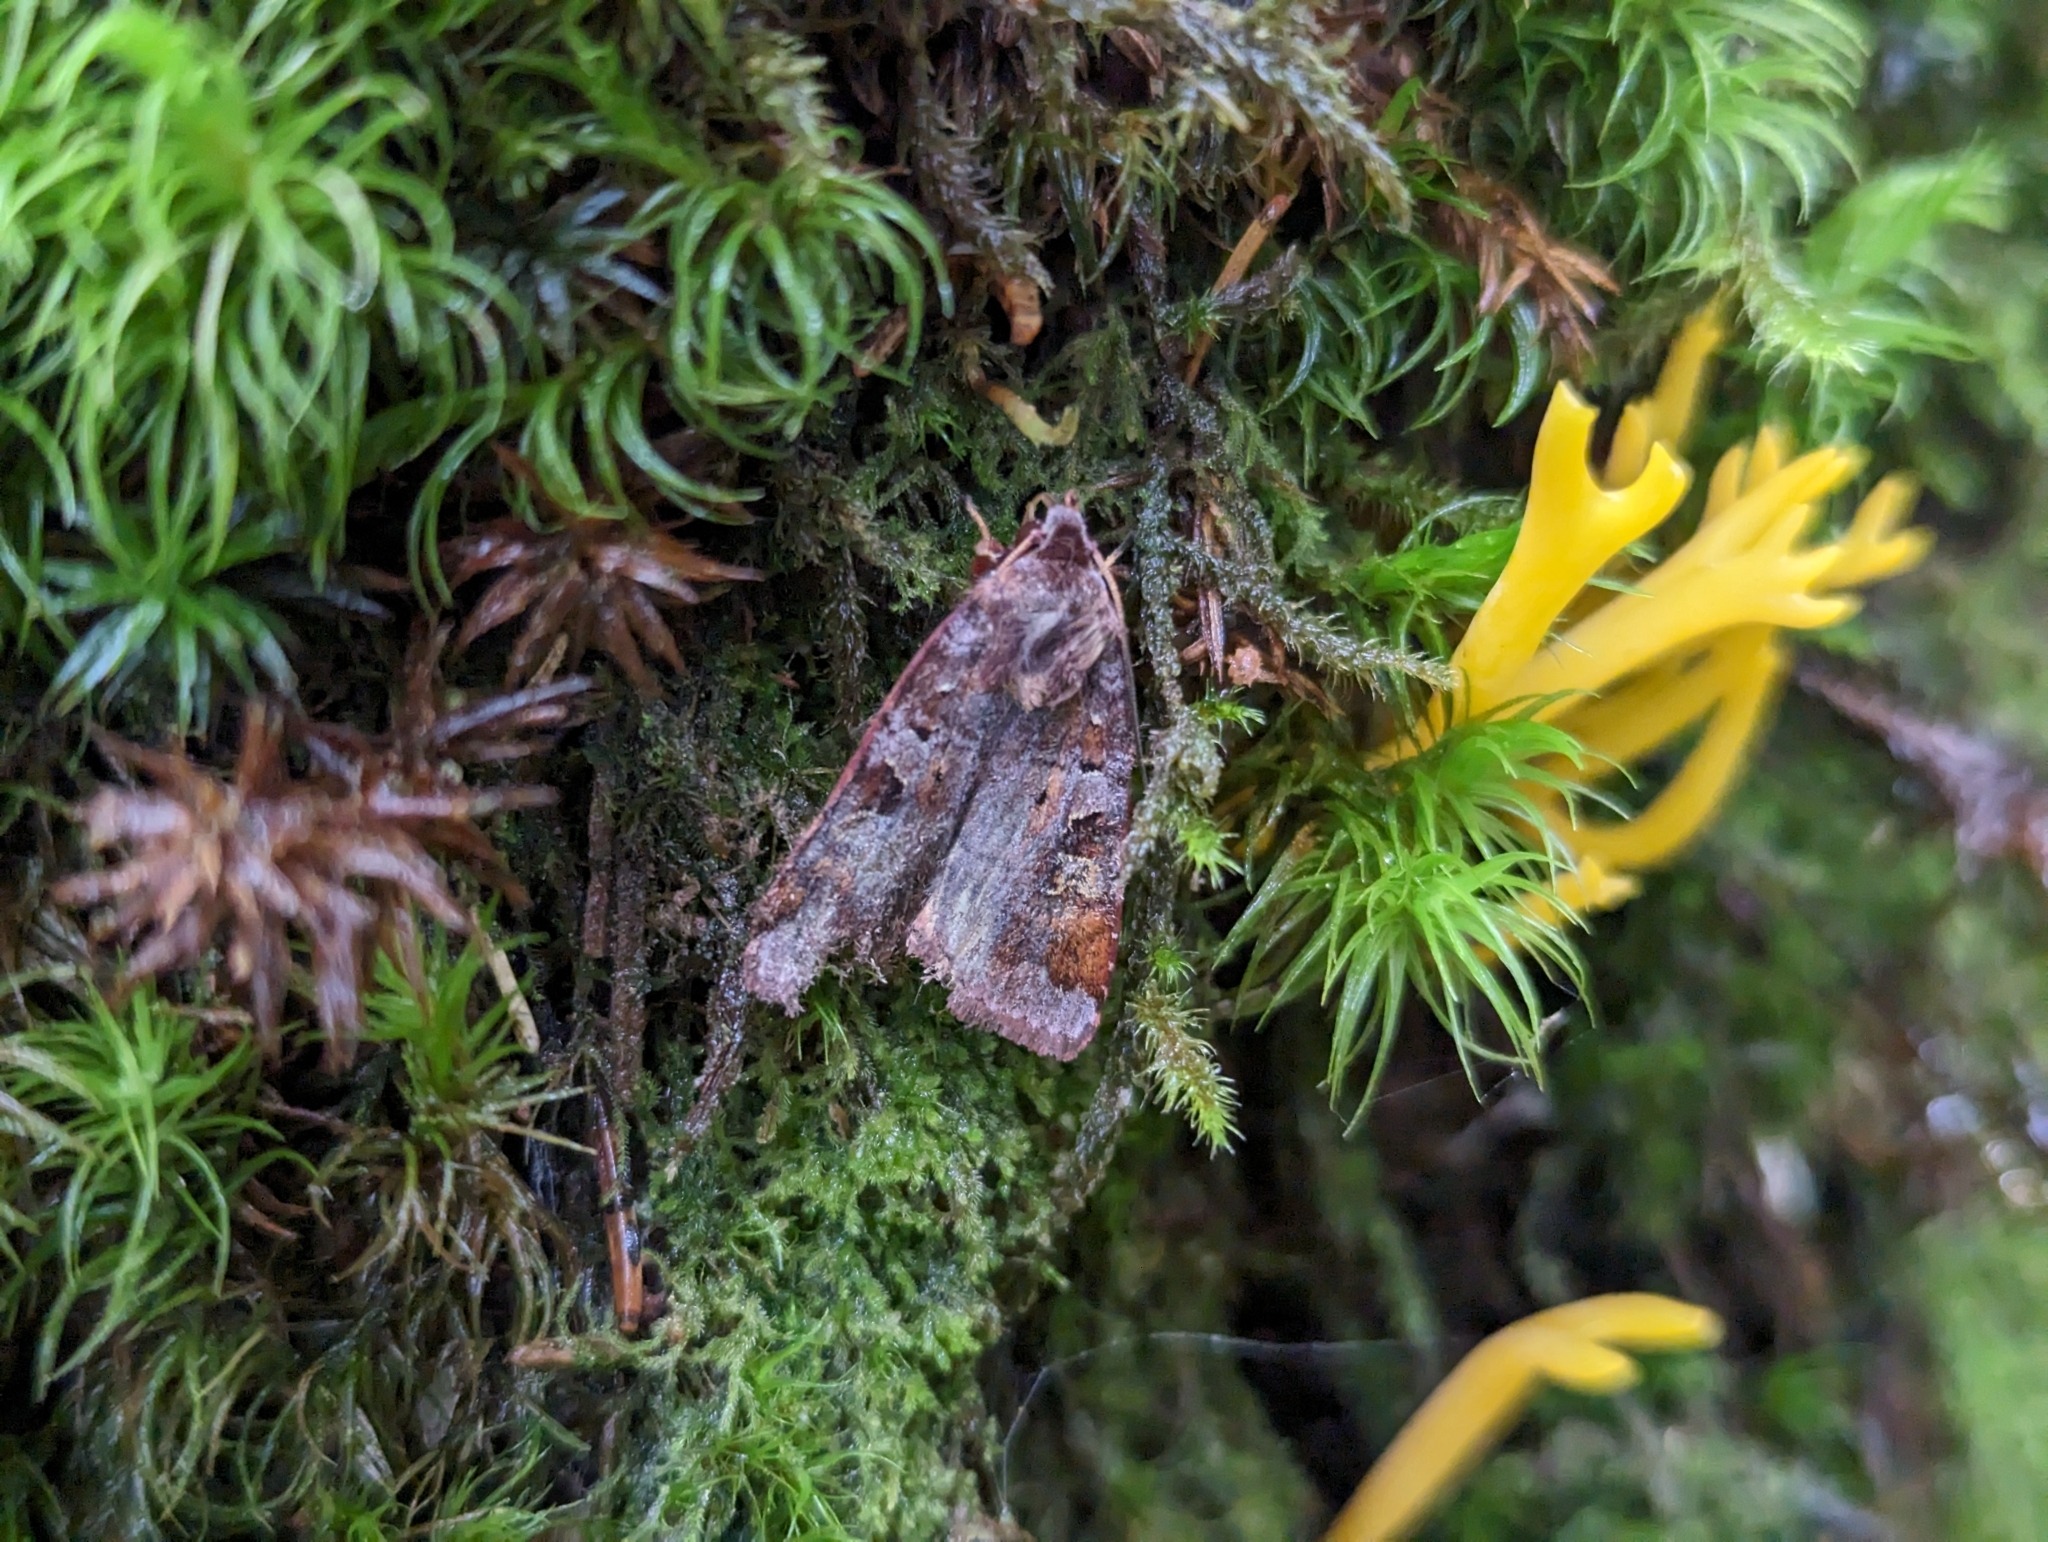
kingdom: Animalia
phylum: Arthropoda
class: Insecta
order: Lepidoptera
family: Noctuidae
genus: Diarsia
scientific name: Diarsia brunnea
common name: Purple clay
